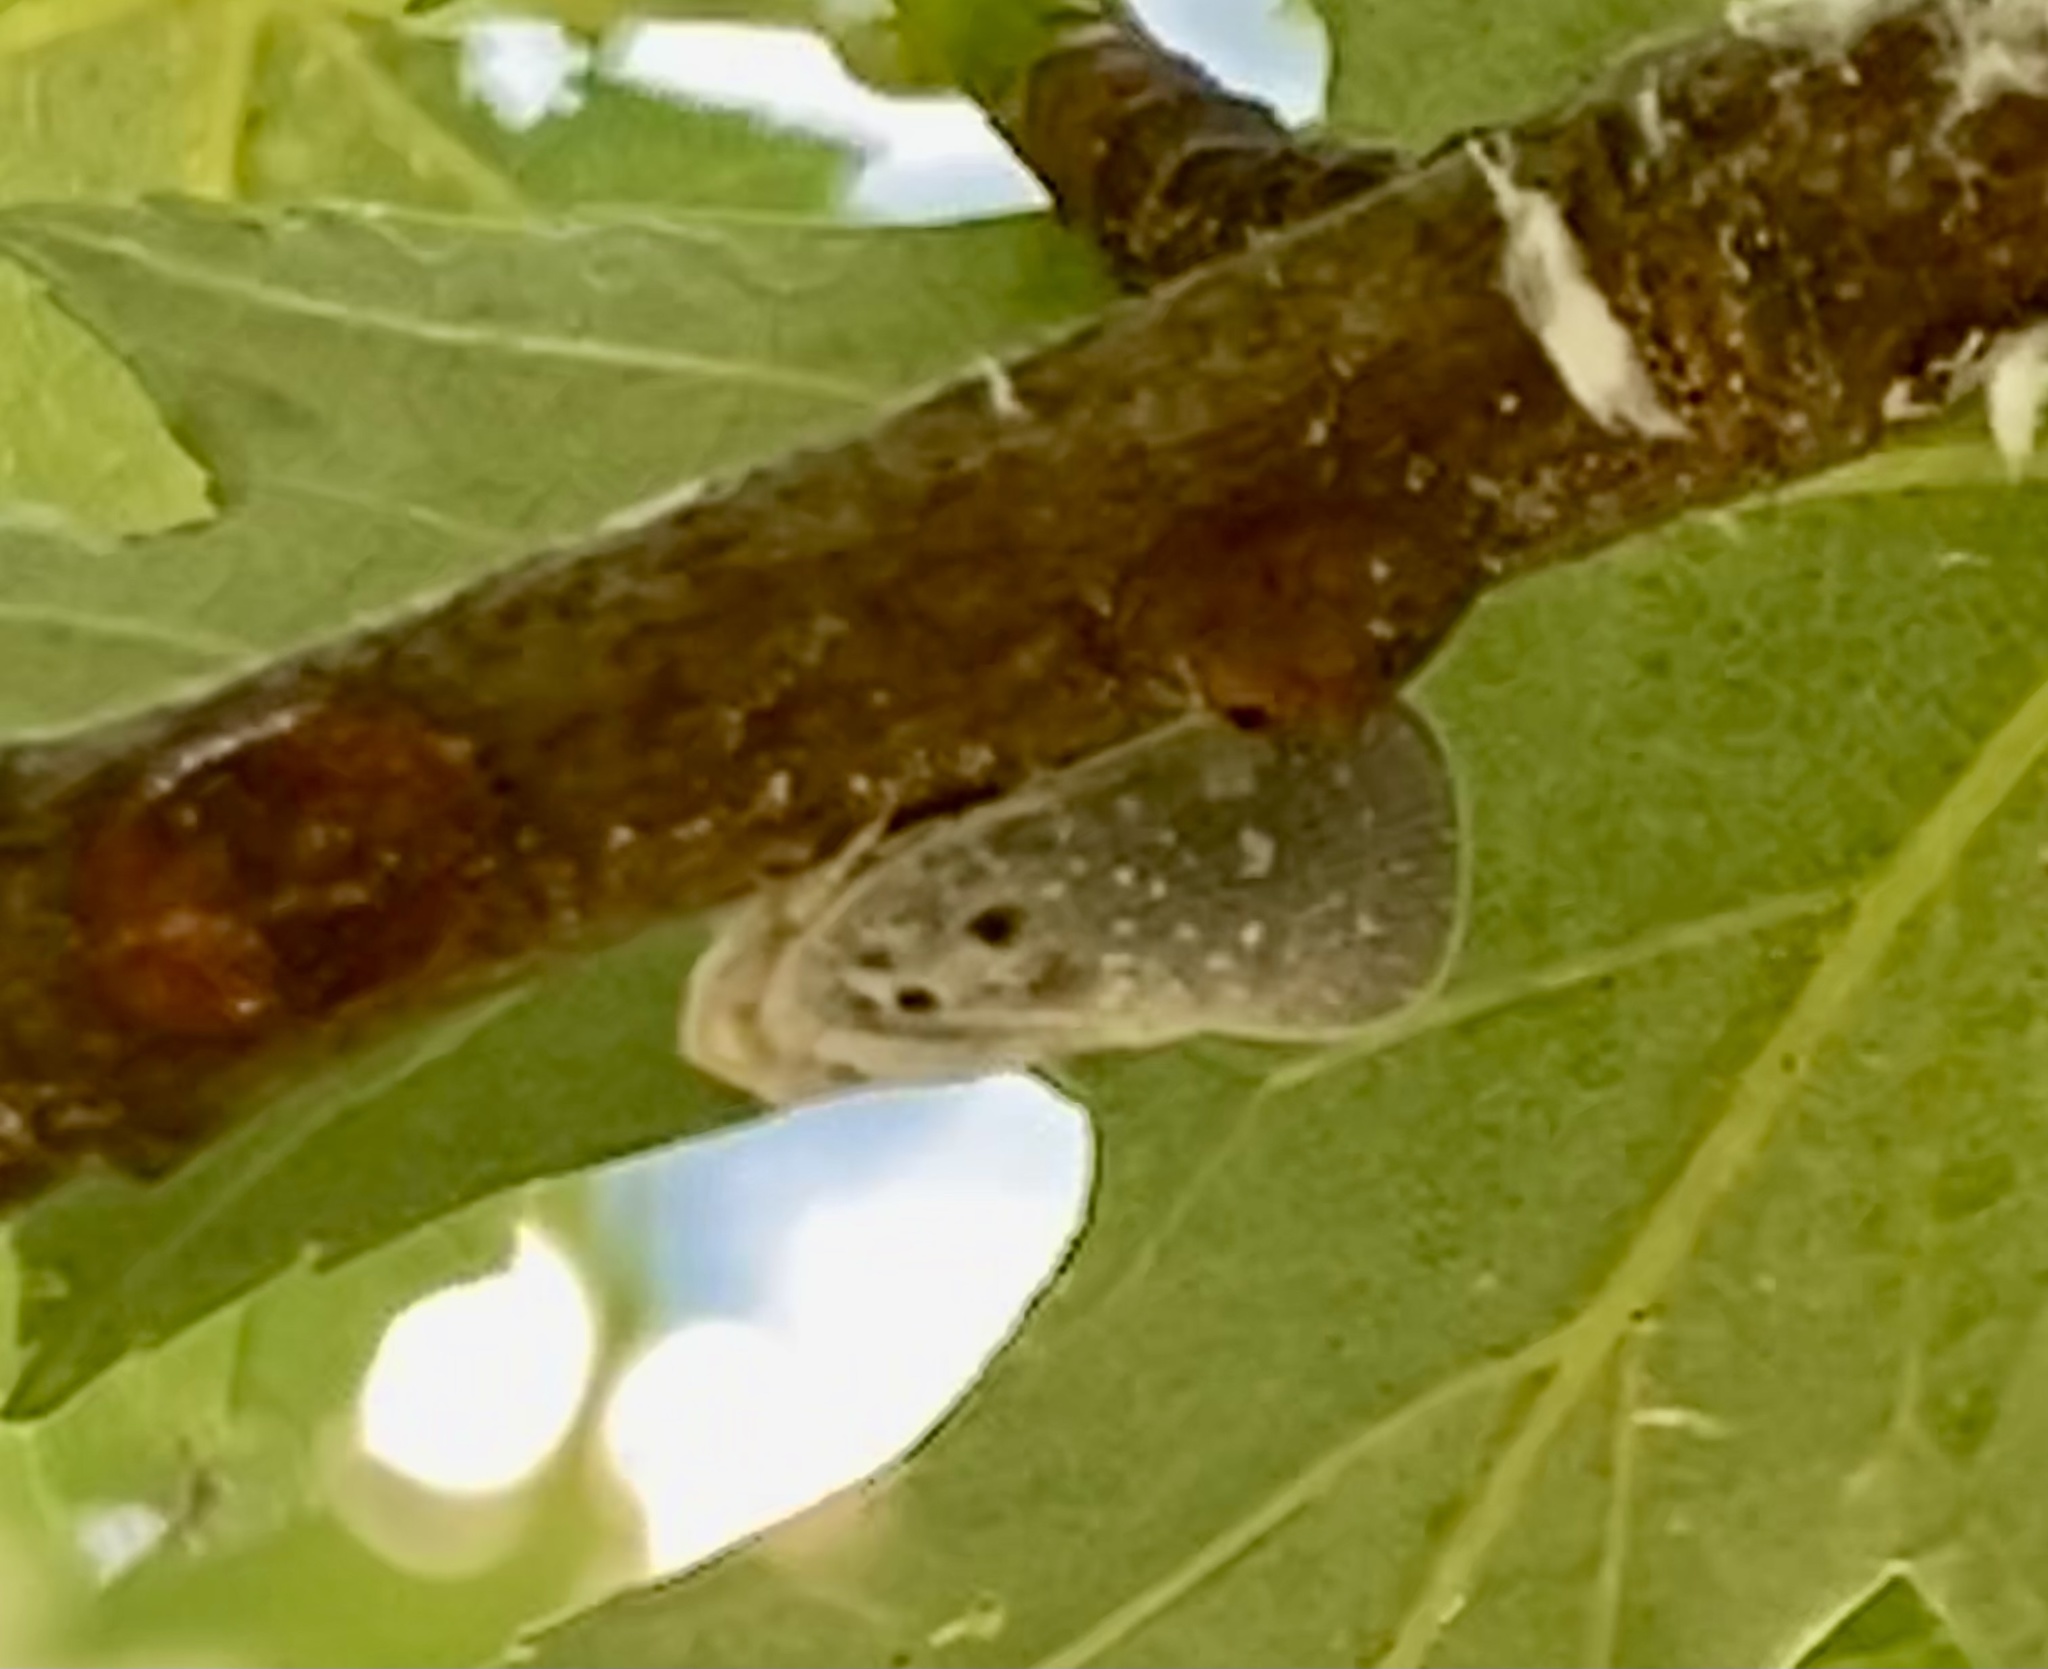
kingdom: Animalia
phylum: Arthropoda
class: Insecta
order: Hemiptera
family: Flatidae
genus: Metcalfa
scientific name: Metcalfa pruinosa
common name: Citrus flatid planthopper
